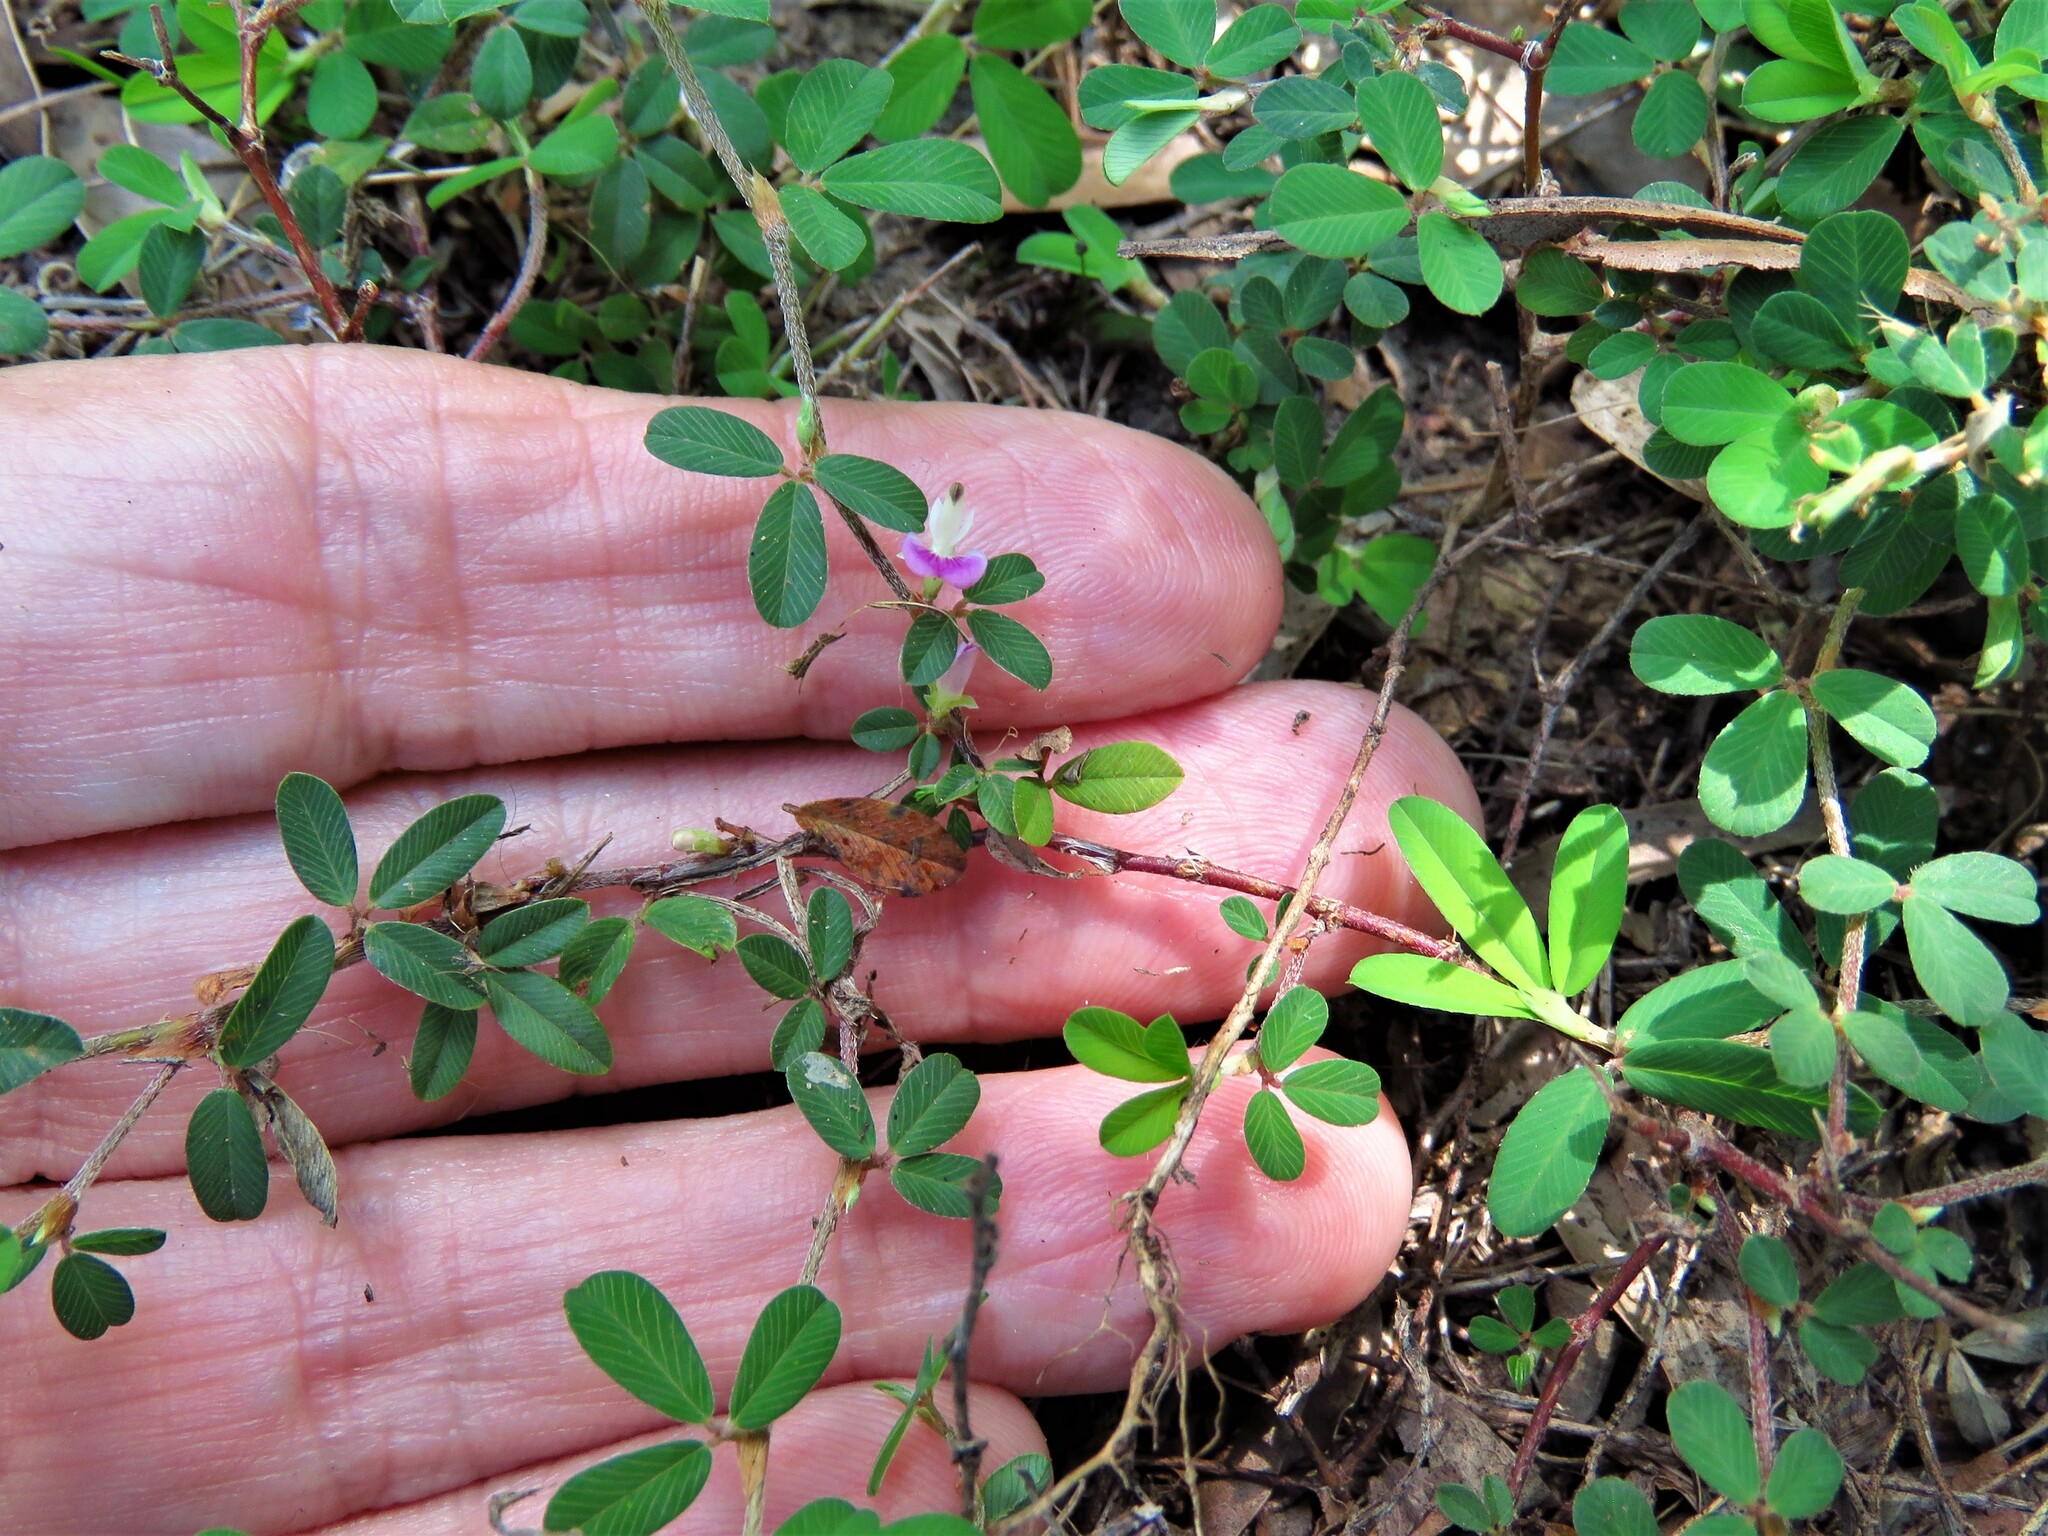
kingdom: Plantae
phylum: Tracheophyta
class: Magnoliopsida
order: Fabales
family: Fabaceae
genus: Kummerowia
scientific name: Kummerowia striata
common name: Japanese clover
